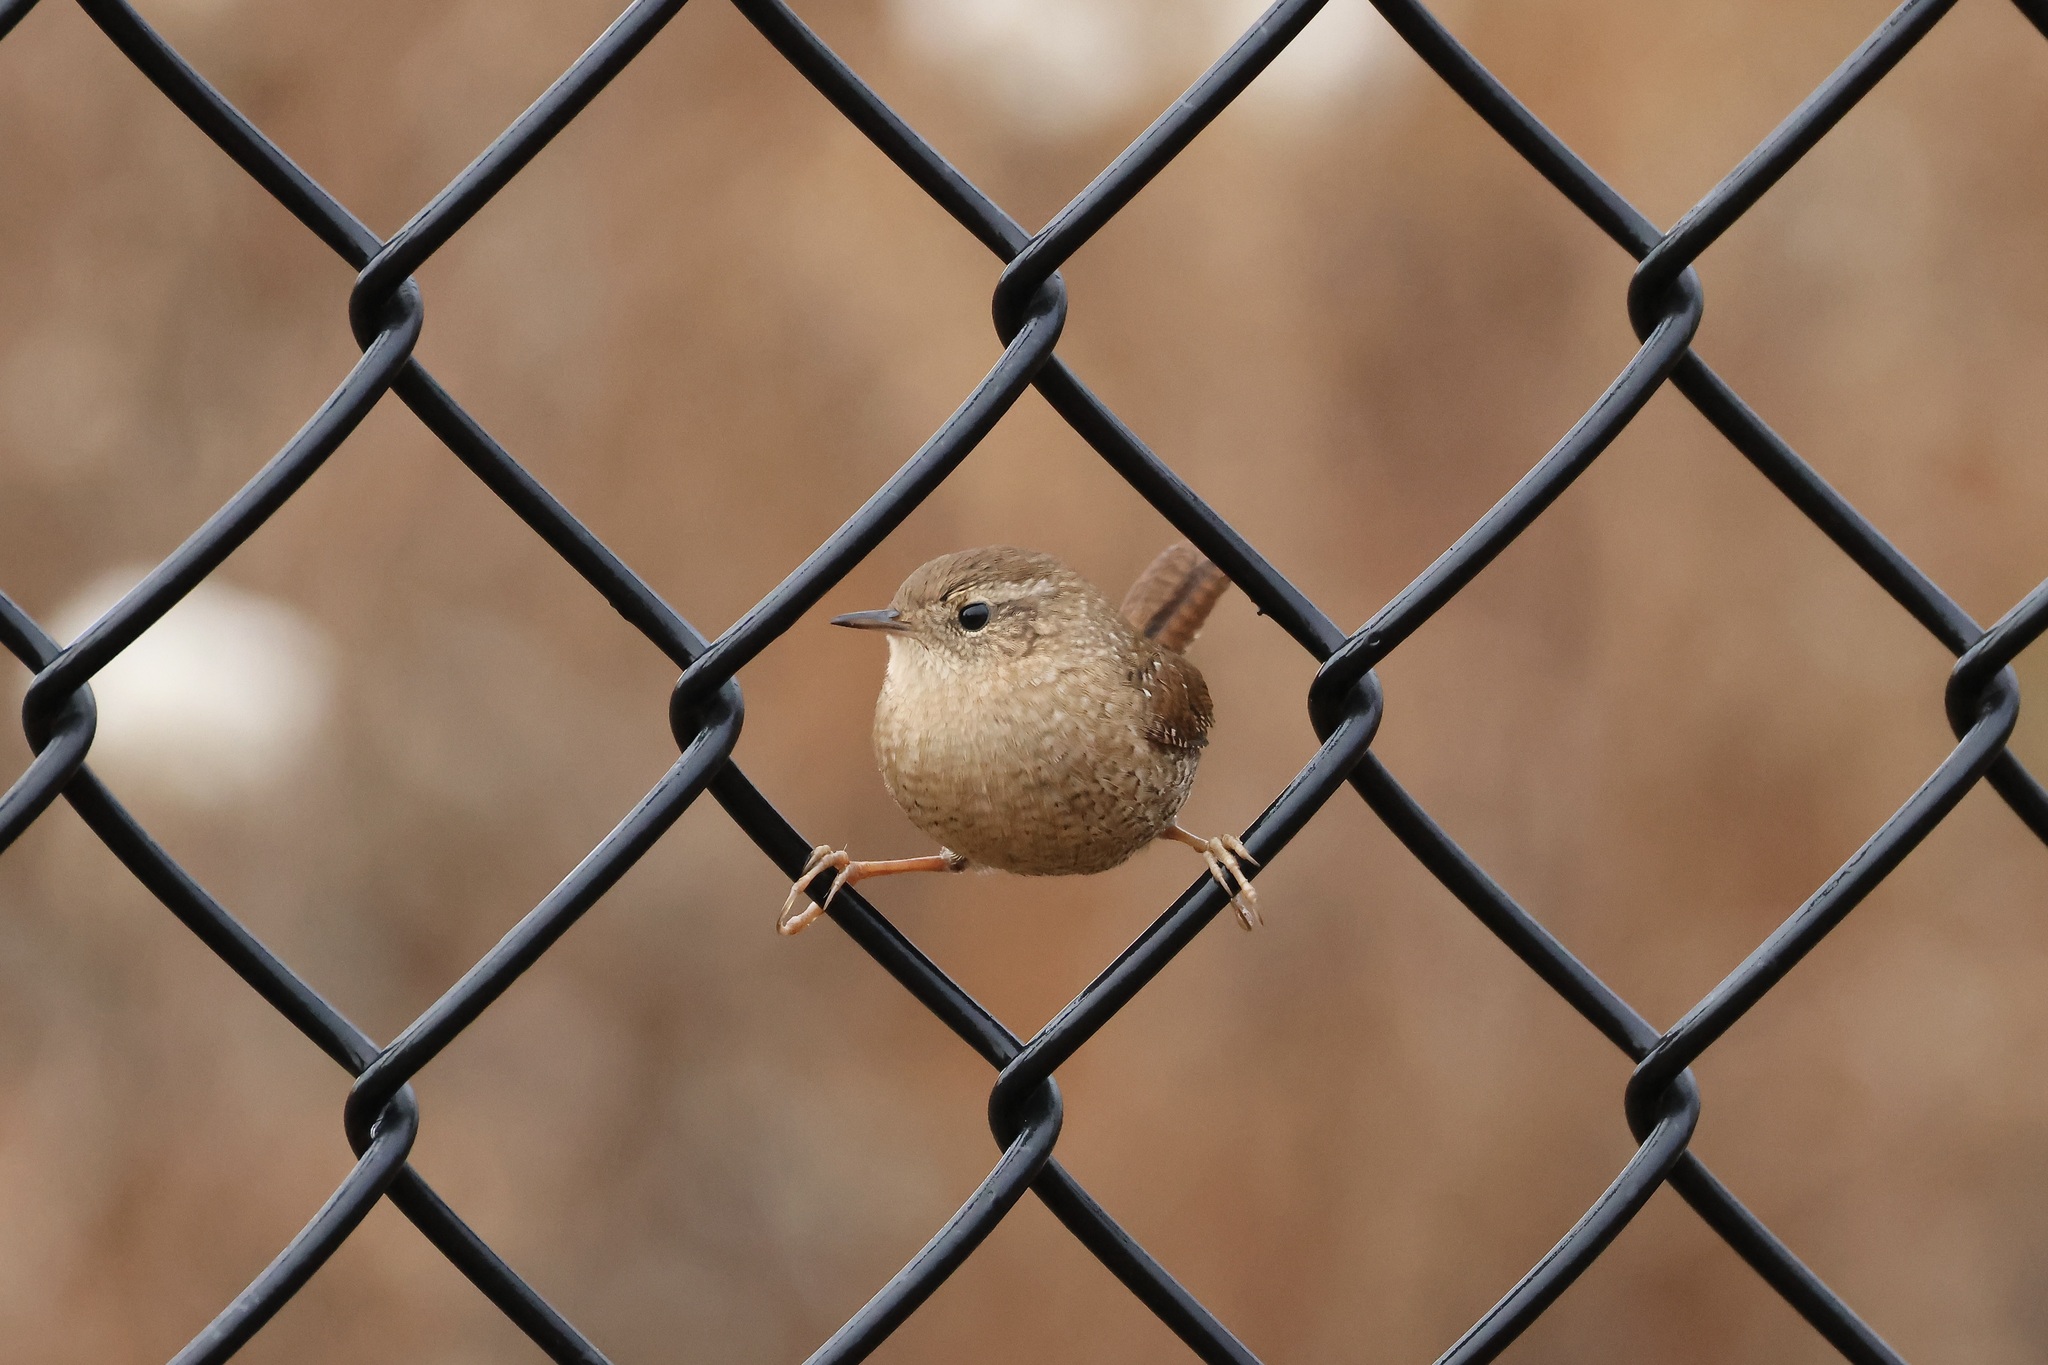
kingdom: Animalia
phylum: Chordata
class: Aves
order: Passeriformes
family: Troglodytidae
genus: Troglodytes
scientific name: Troglodytes hiemalis
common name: Winter wren
